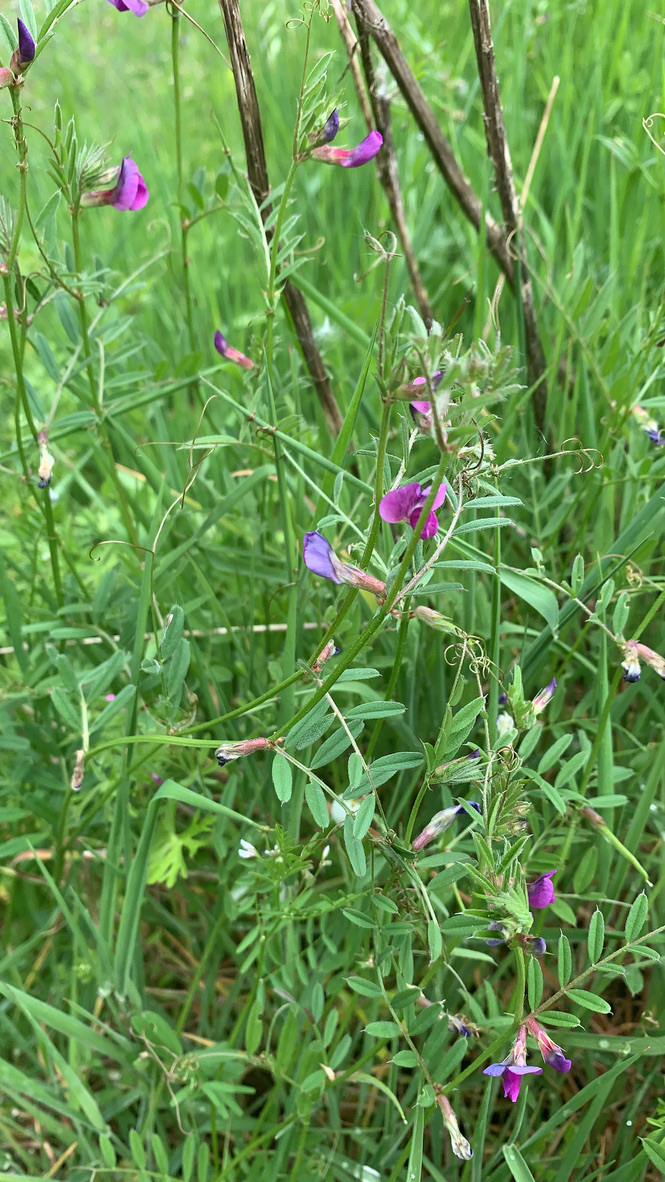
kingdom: Plantae
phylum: Tracheophyta
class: Magnoliopsida
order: Fabales
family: Fabaceae
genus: Vicia
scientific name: Vicia sativa
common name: Garden vetch
